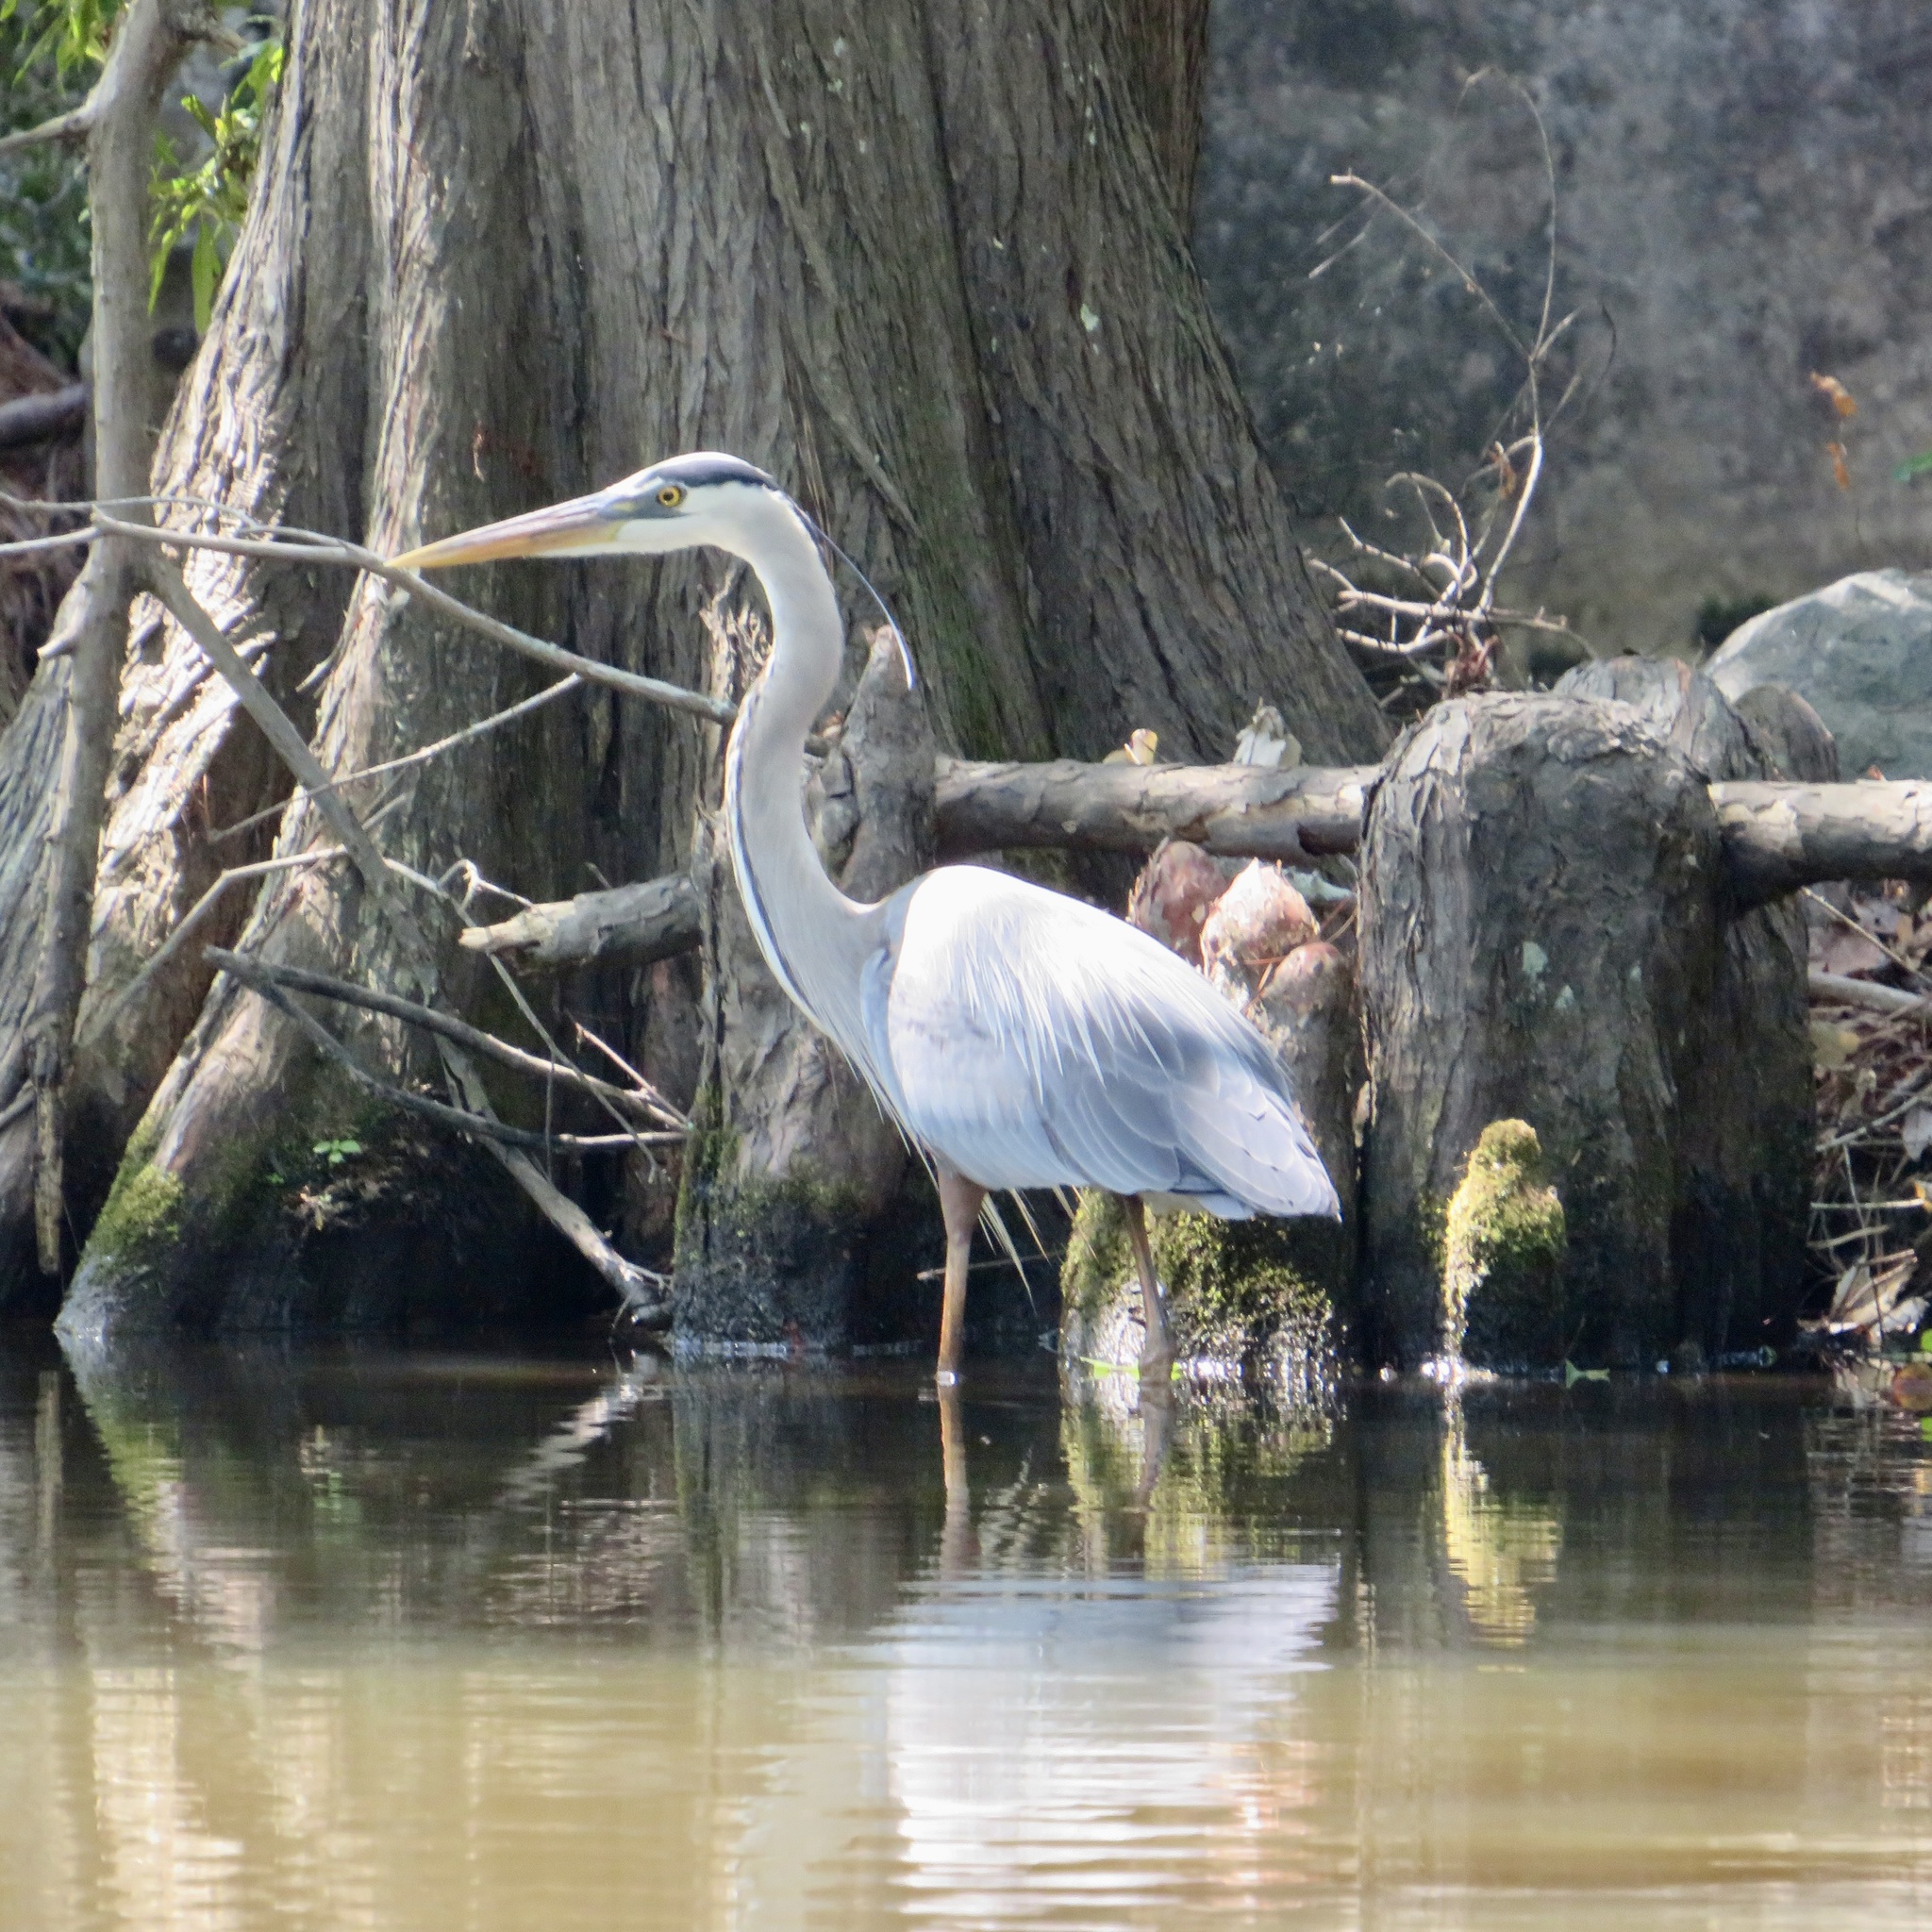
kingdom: Animalia
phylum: Chordata
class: Aves
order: Pelecaniformes
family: Ardeidae
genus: Ardea
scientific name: Ardea herodias
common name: Great blue heron
